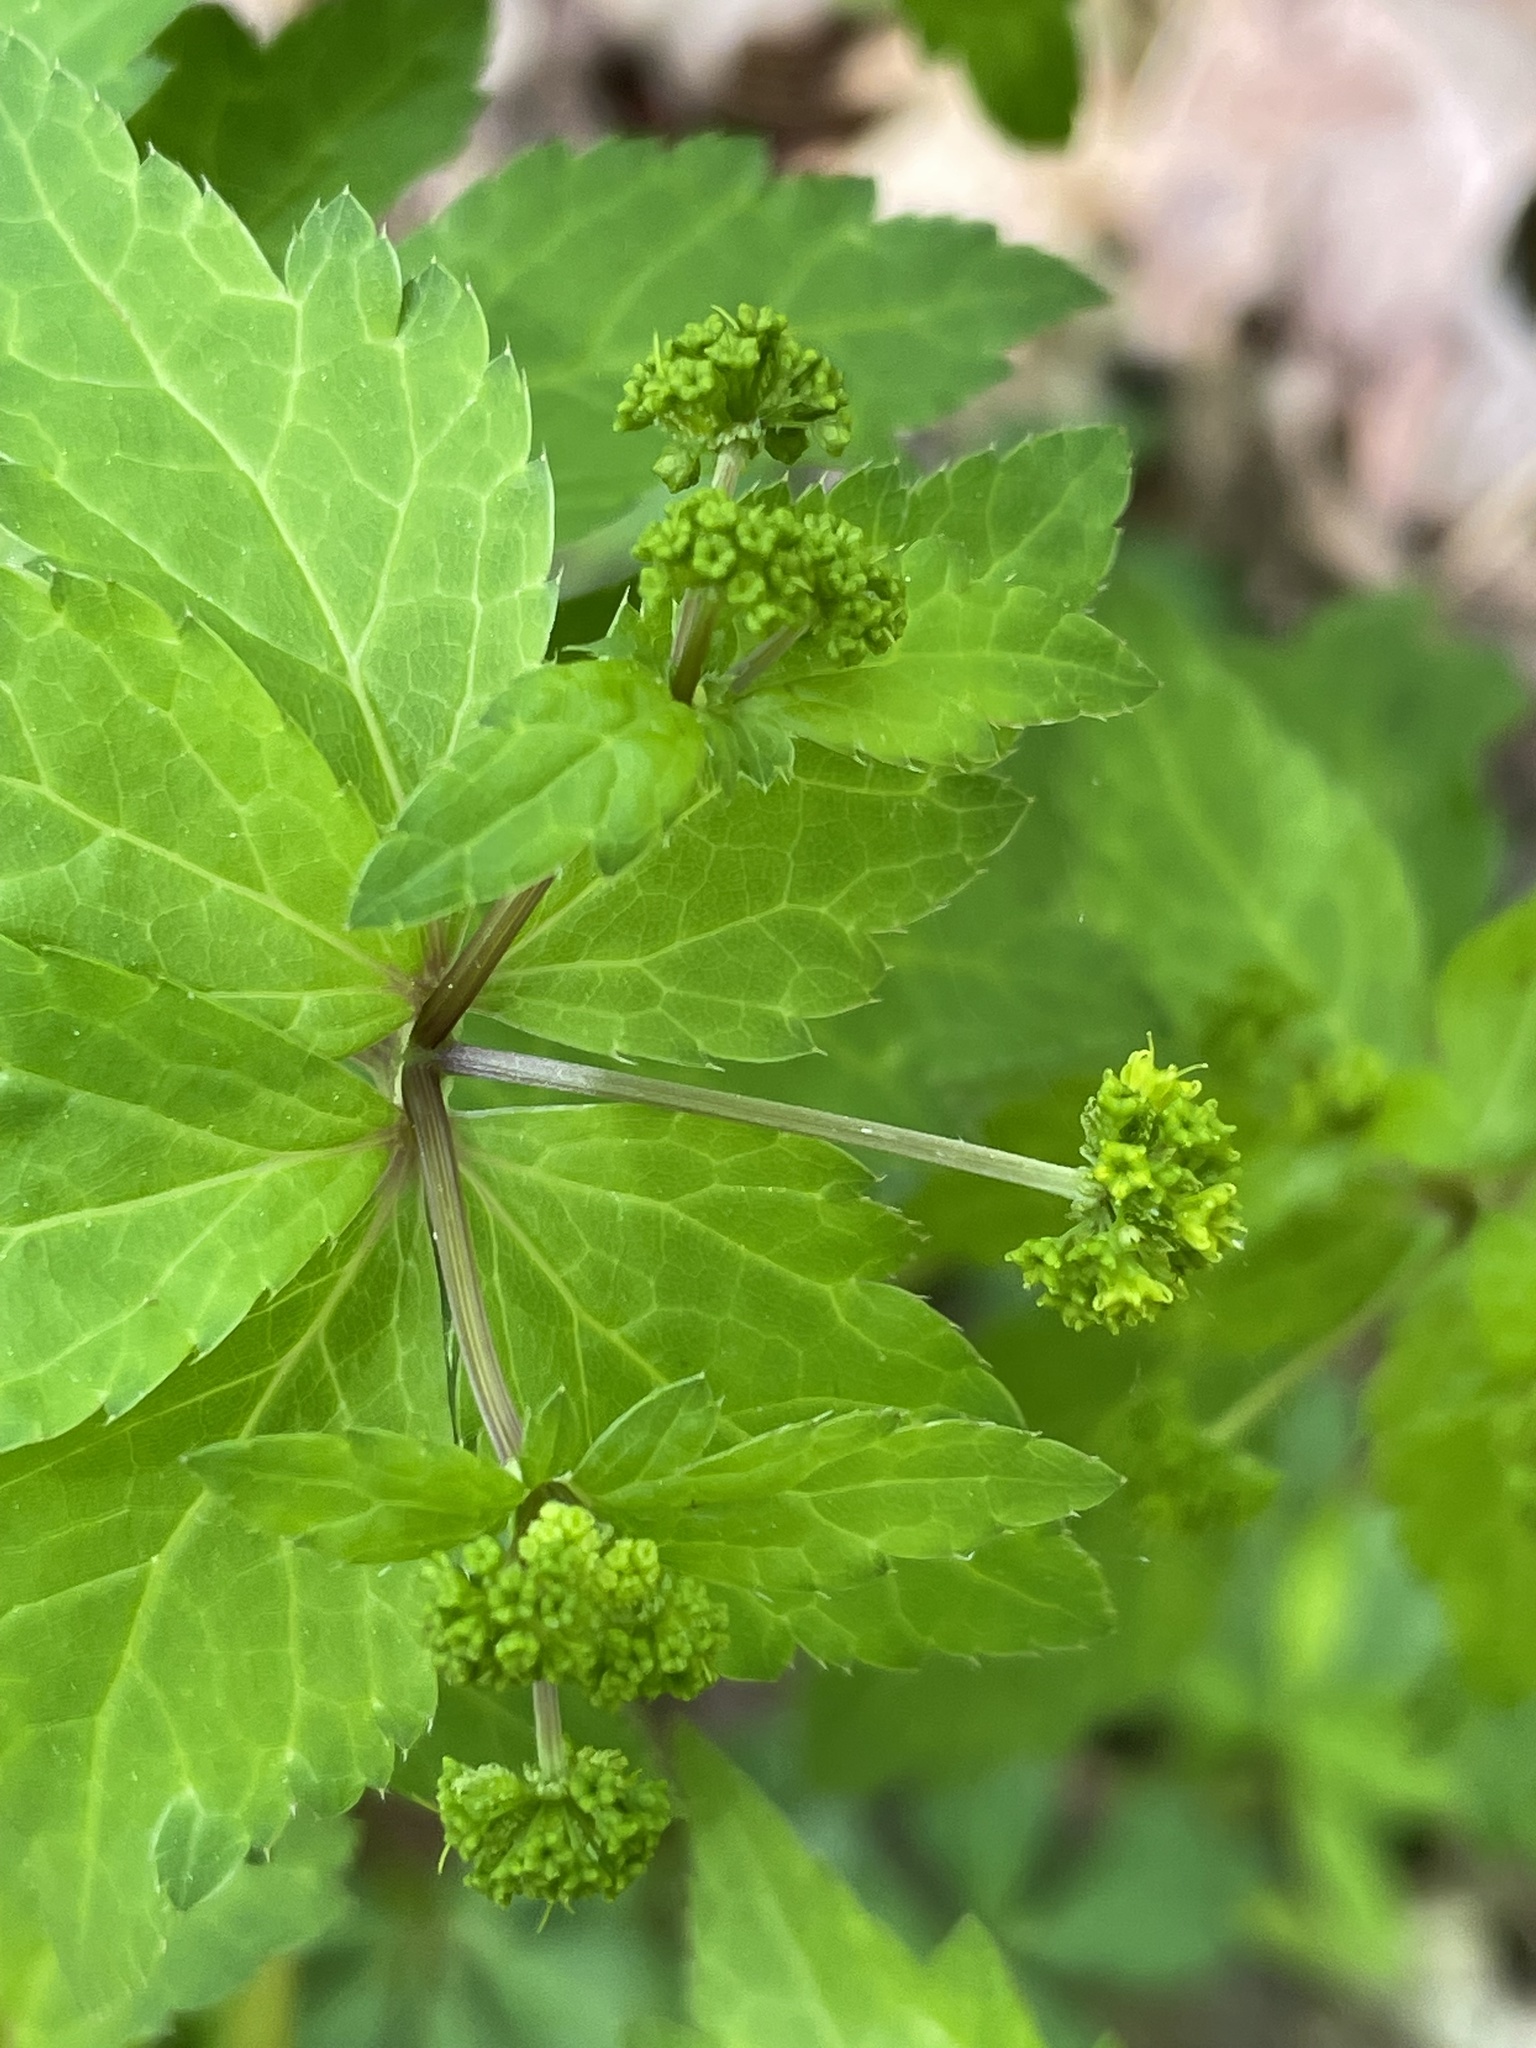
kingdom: Plantae
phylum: Tracheophyta
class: Magnoliopsida
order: Apiales
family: Apiaceae
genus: Sanicula
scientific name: Sanicula odorata
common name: Cluster sanicle
